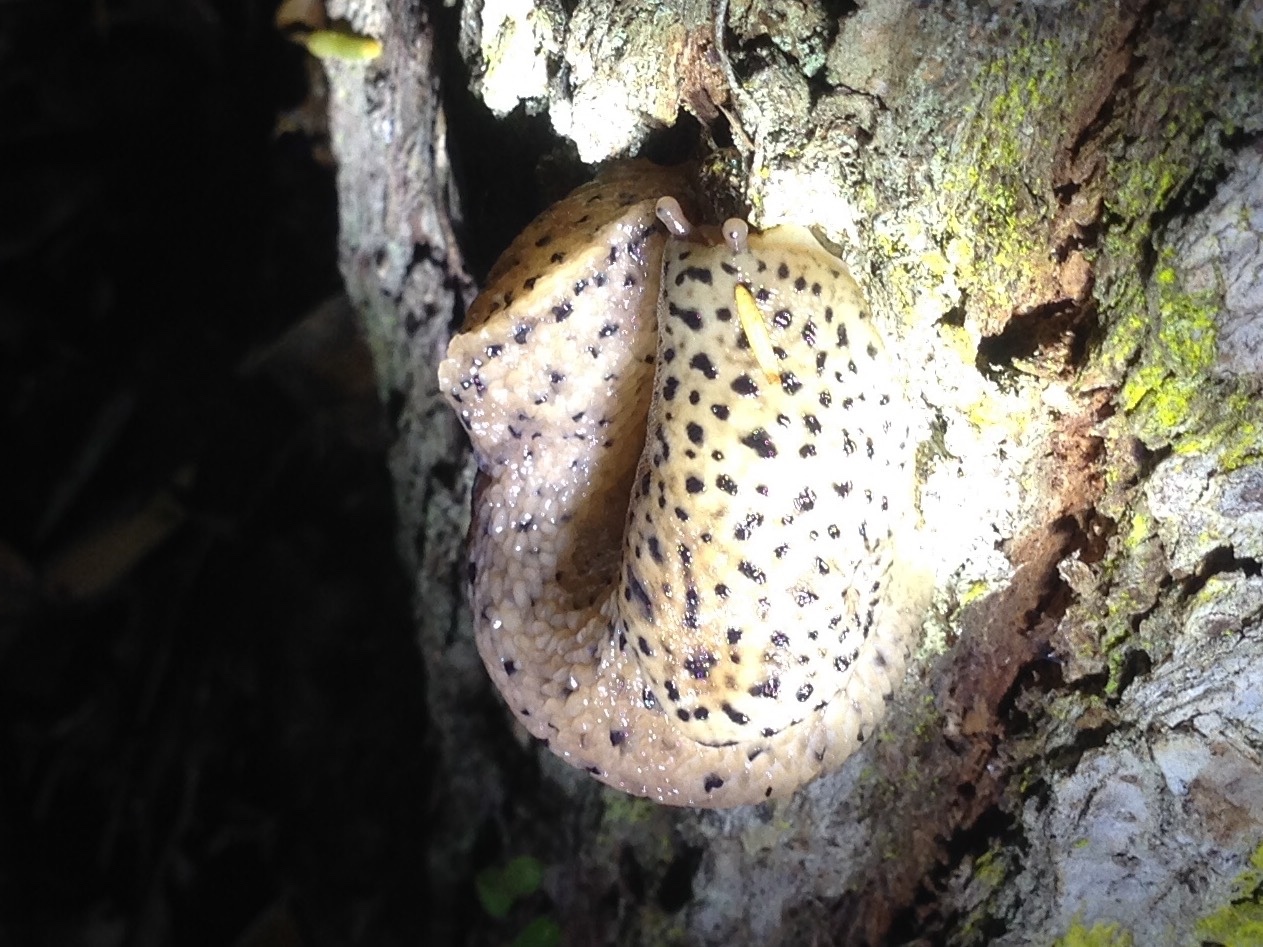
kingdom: Animalia
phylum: Mollusca
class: Gastropoda
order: Stylommatophora
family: Limacidae
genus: Limax
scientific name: Limax maximus
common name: Great grey slug
